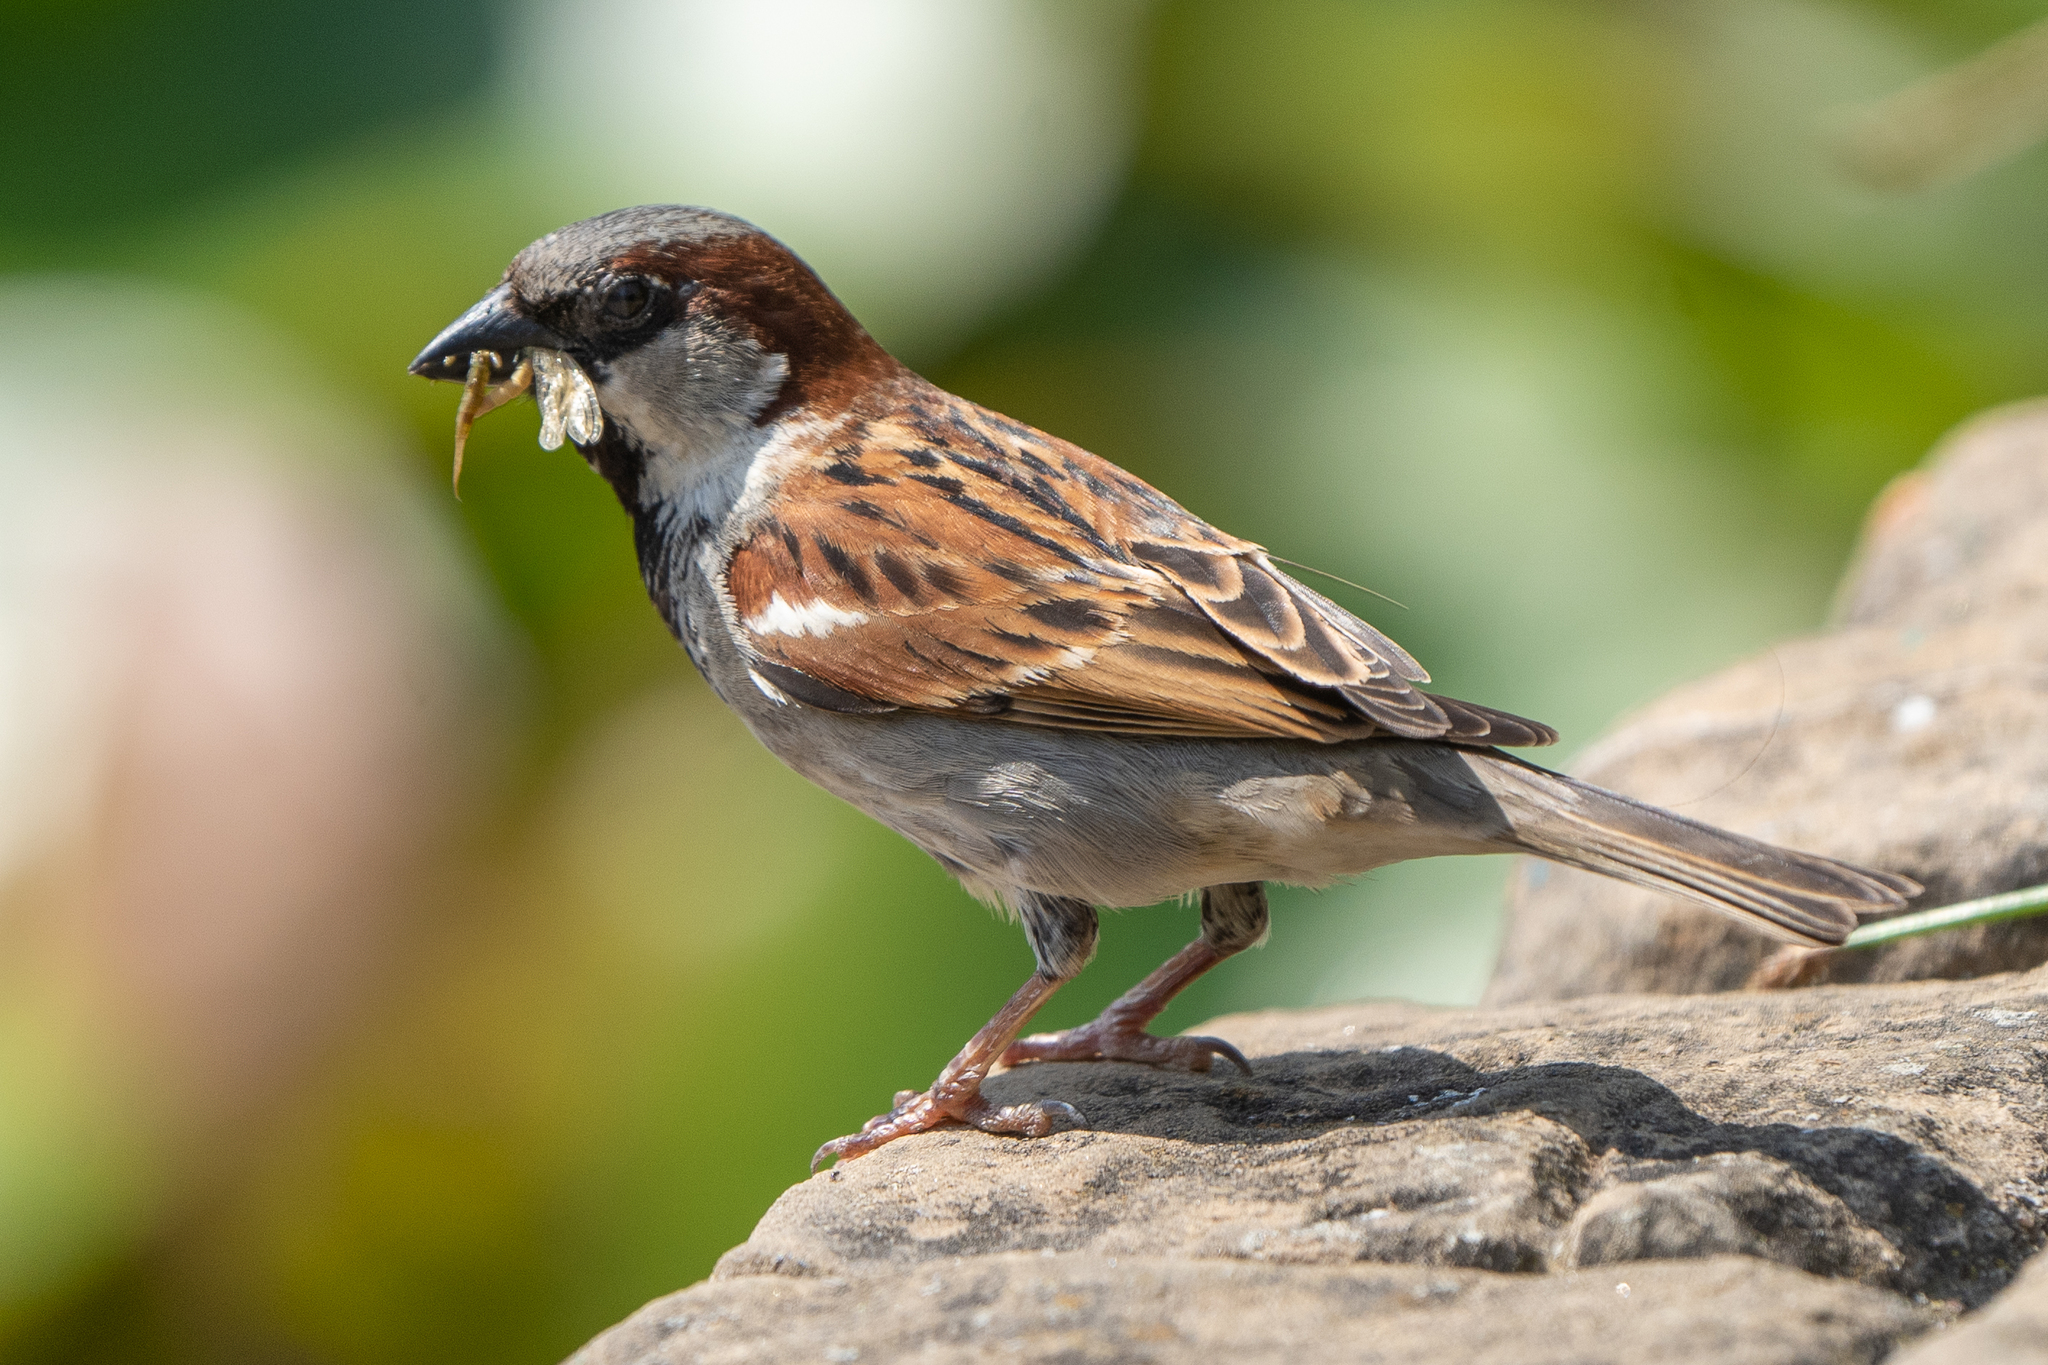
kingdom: Animalia
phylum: Chordata
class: Aves
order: Passeriformes
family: Passeridae
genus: Passer
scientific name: Passer domesticus
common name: House sparrow
